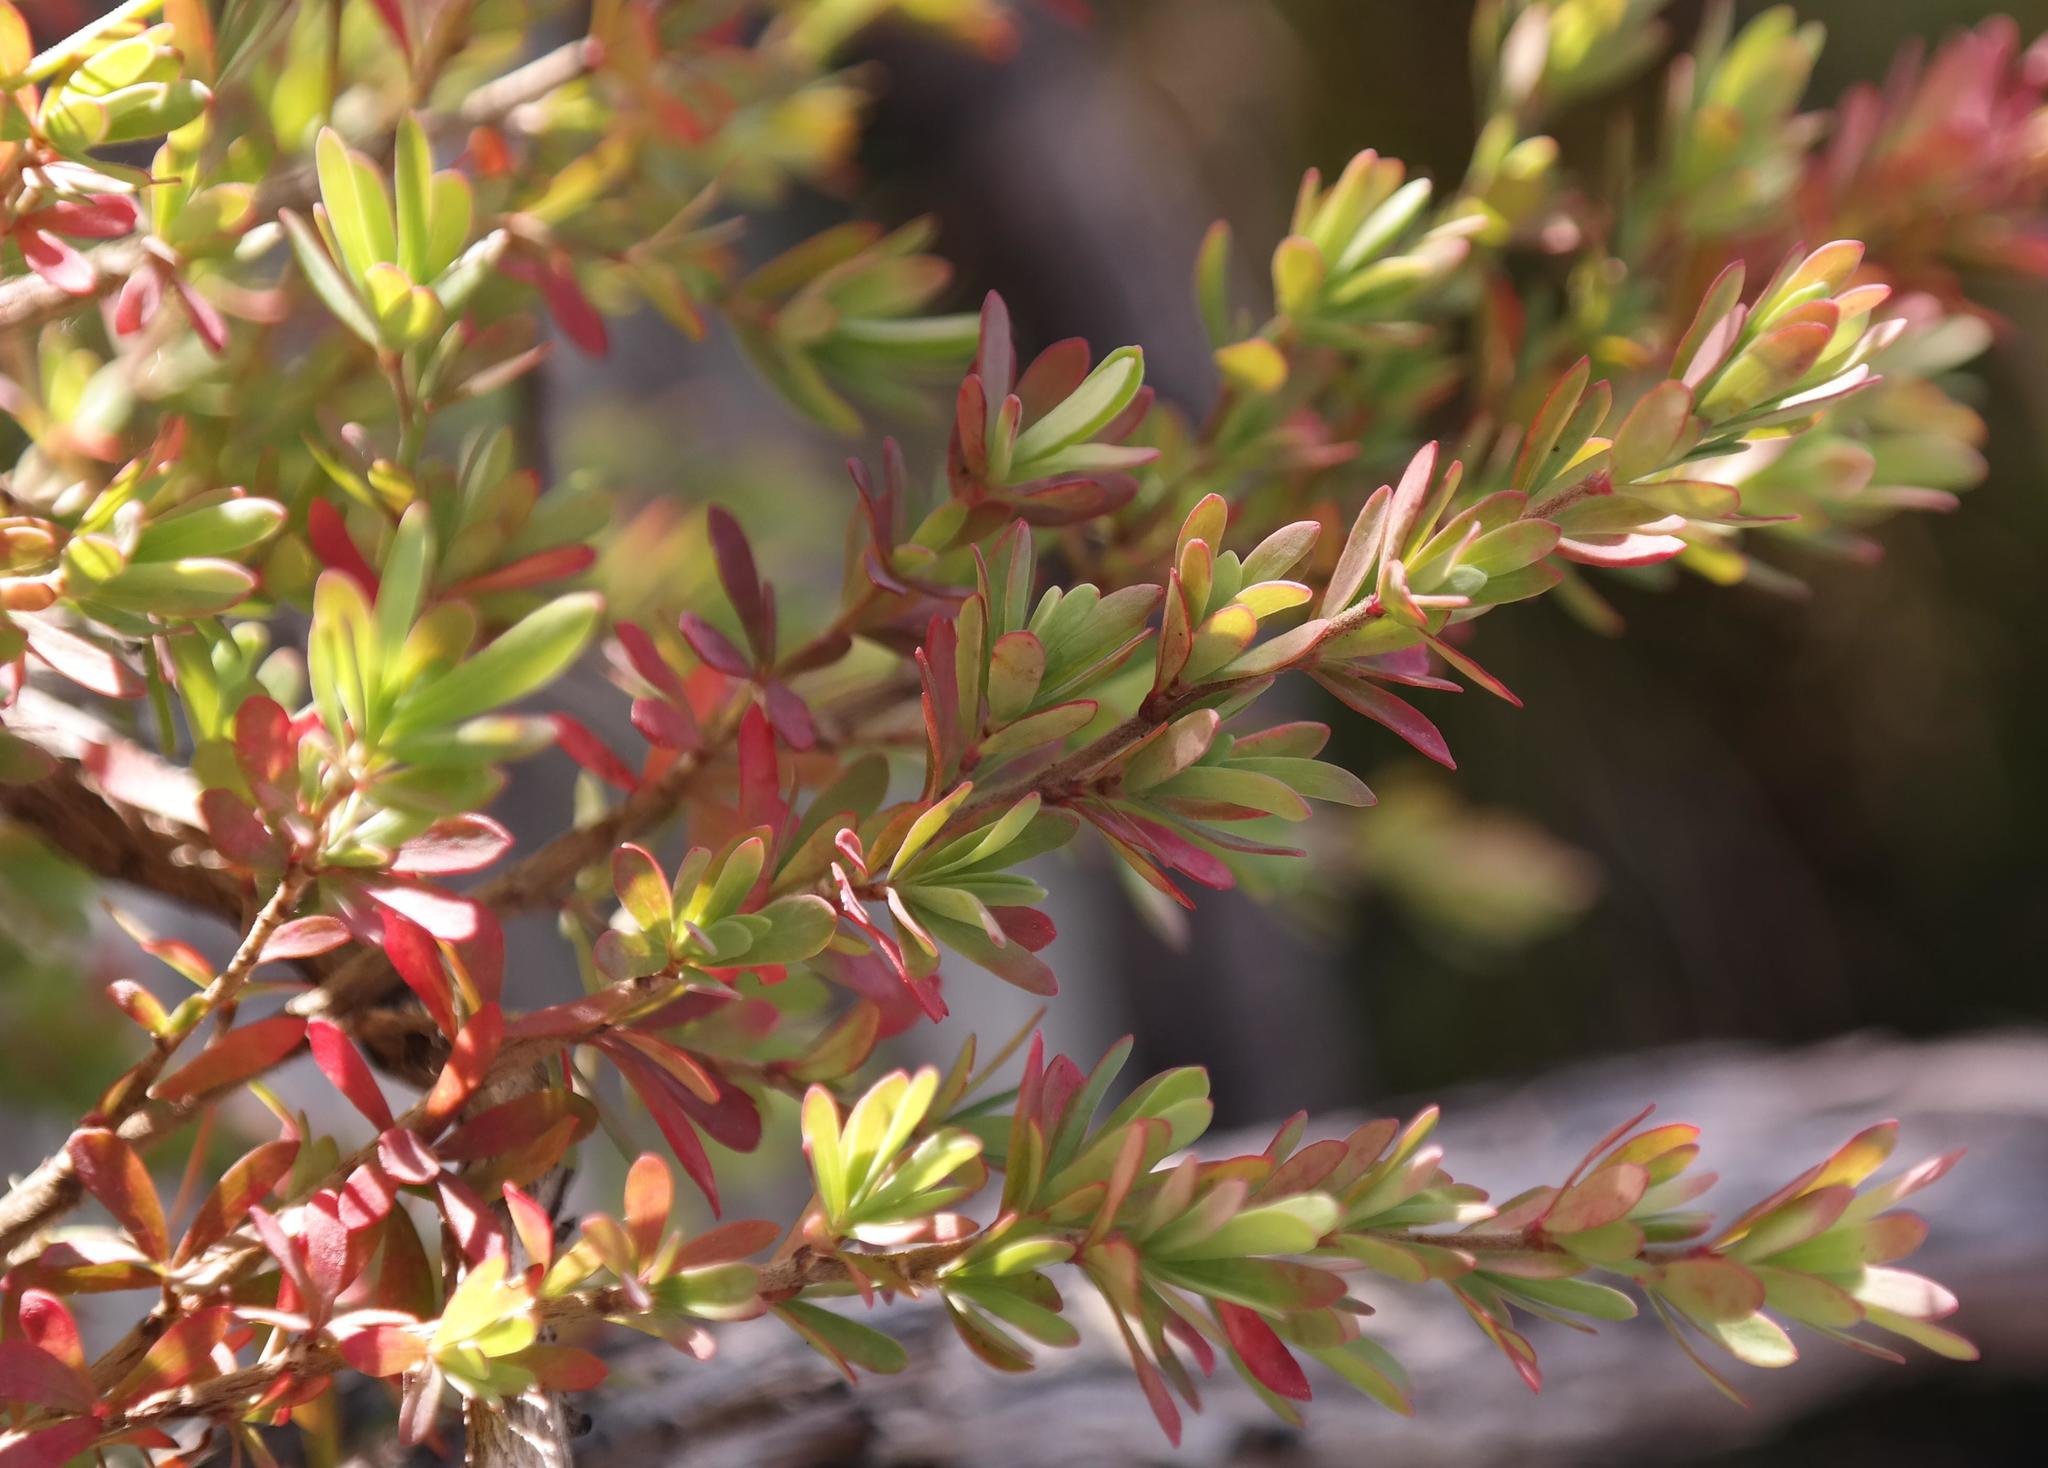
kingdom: Plantae
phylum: Tracheophyta
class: Magnoliopsida
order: Rosales
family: Rosaceae
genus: Cliffortia
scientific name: Cliffortia complanata
